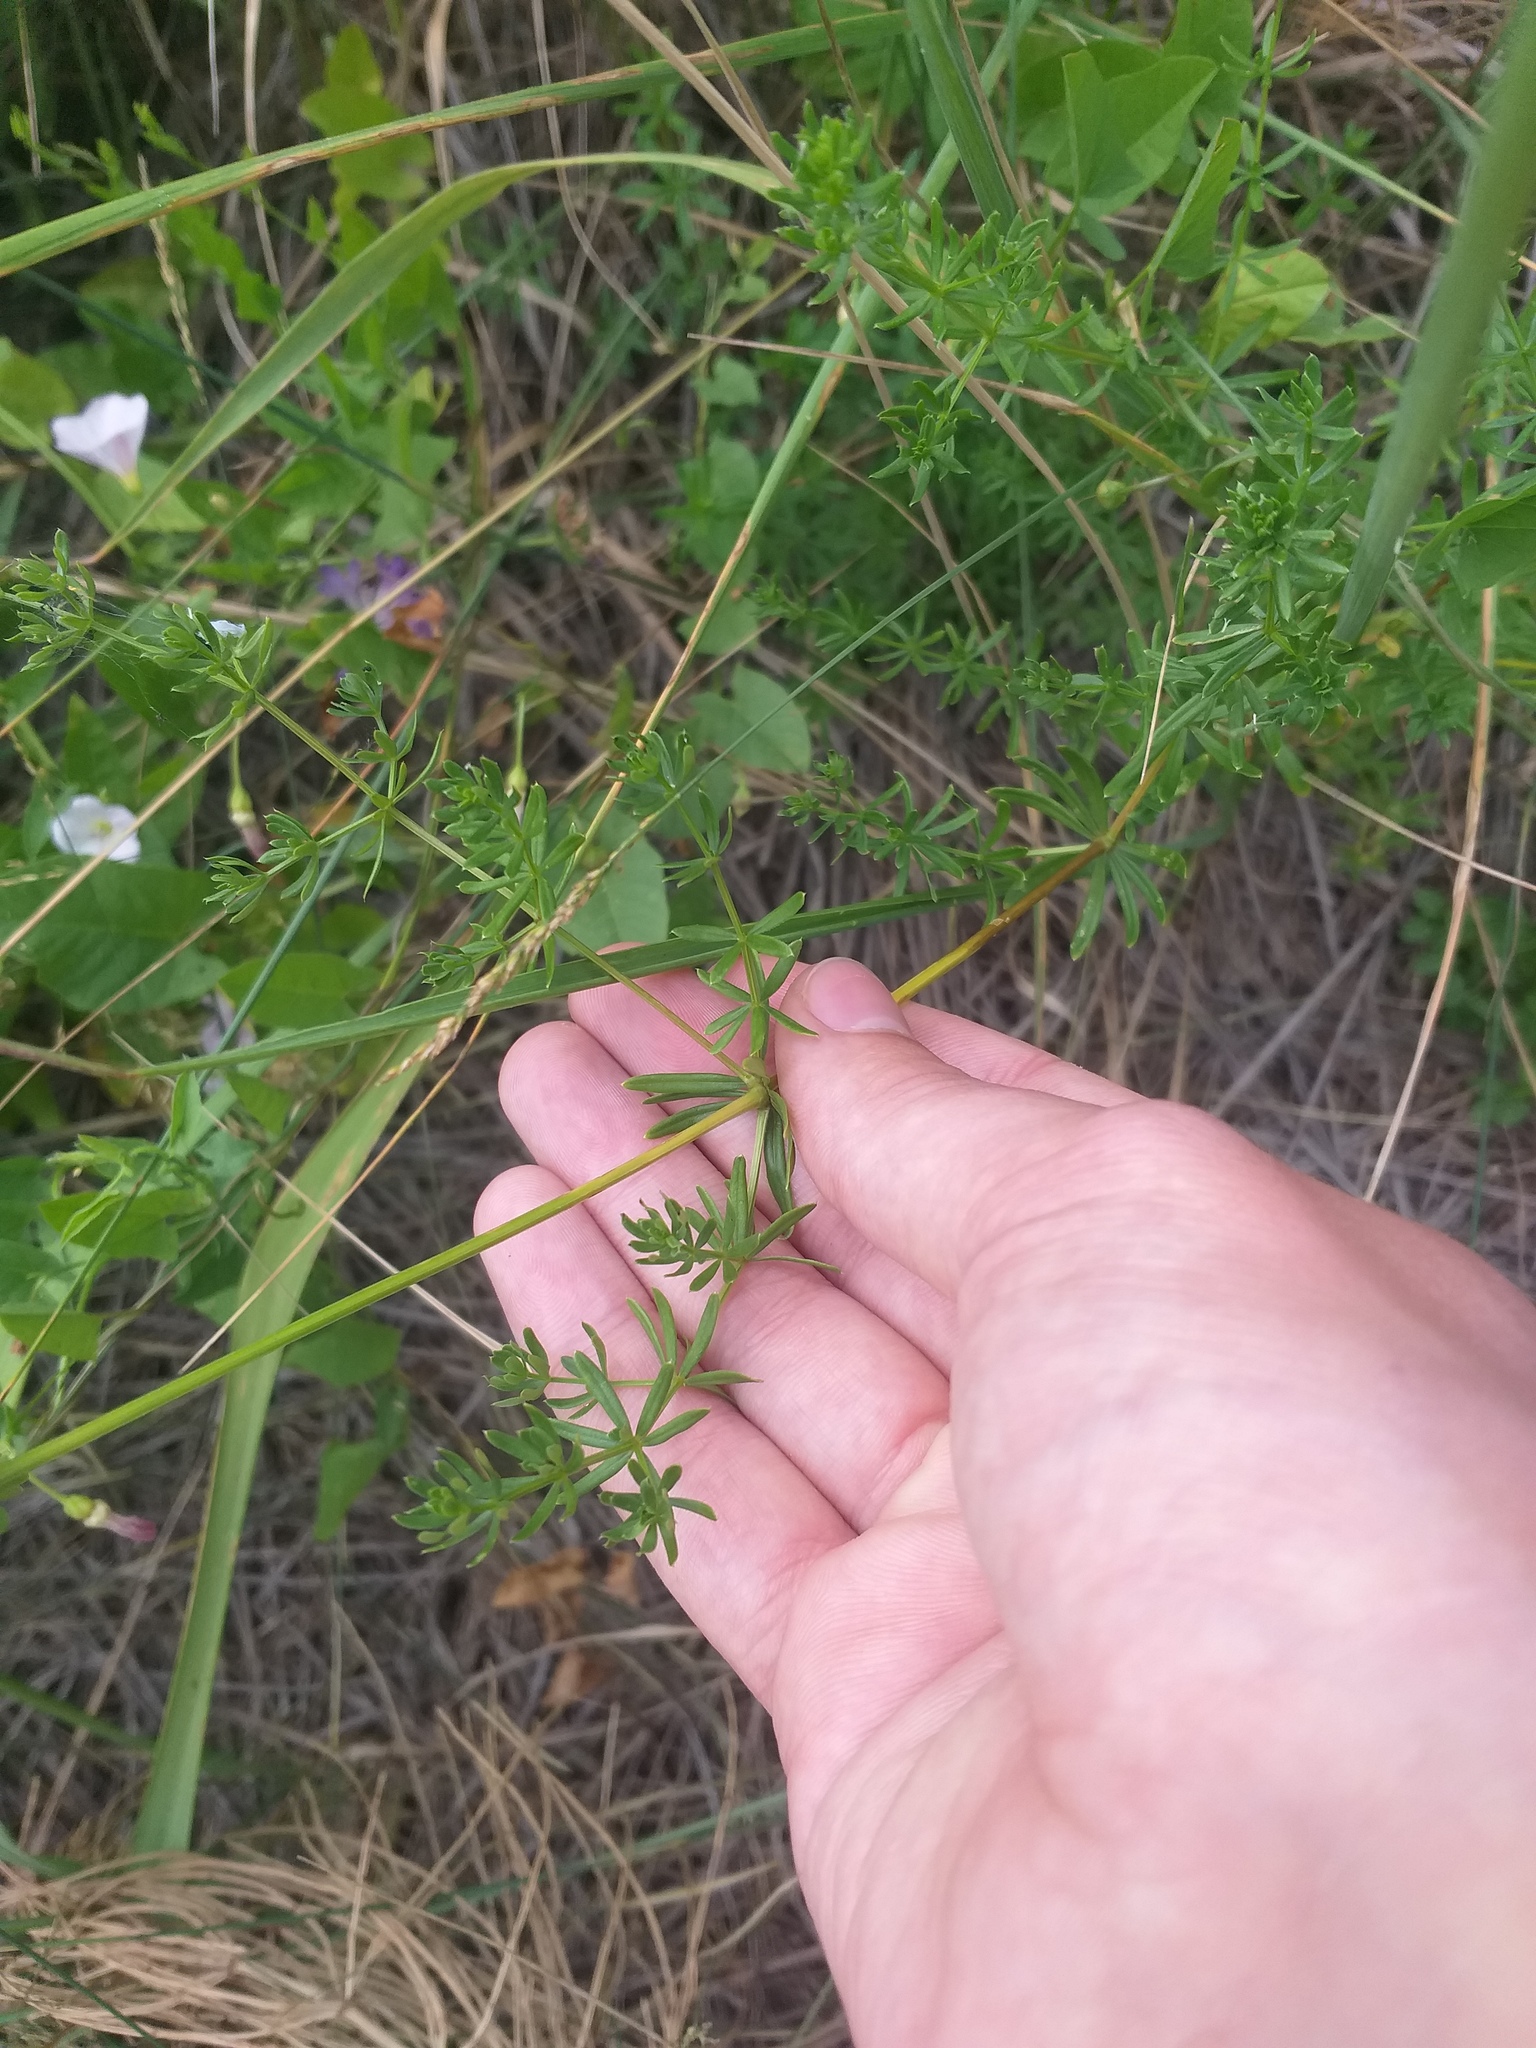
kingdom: Plantae
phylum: Tracheophyta
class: Magnoliopsida
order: Gentianales
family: Rubiaceae
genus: Galium
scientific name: Galium mollugo
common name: Hedge bedstraw
